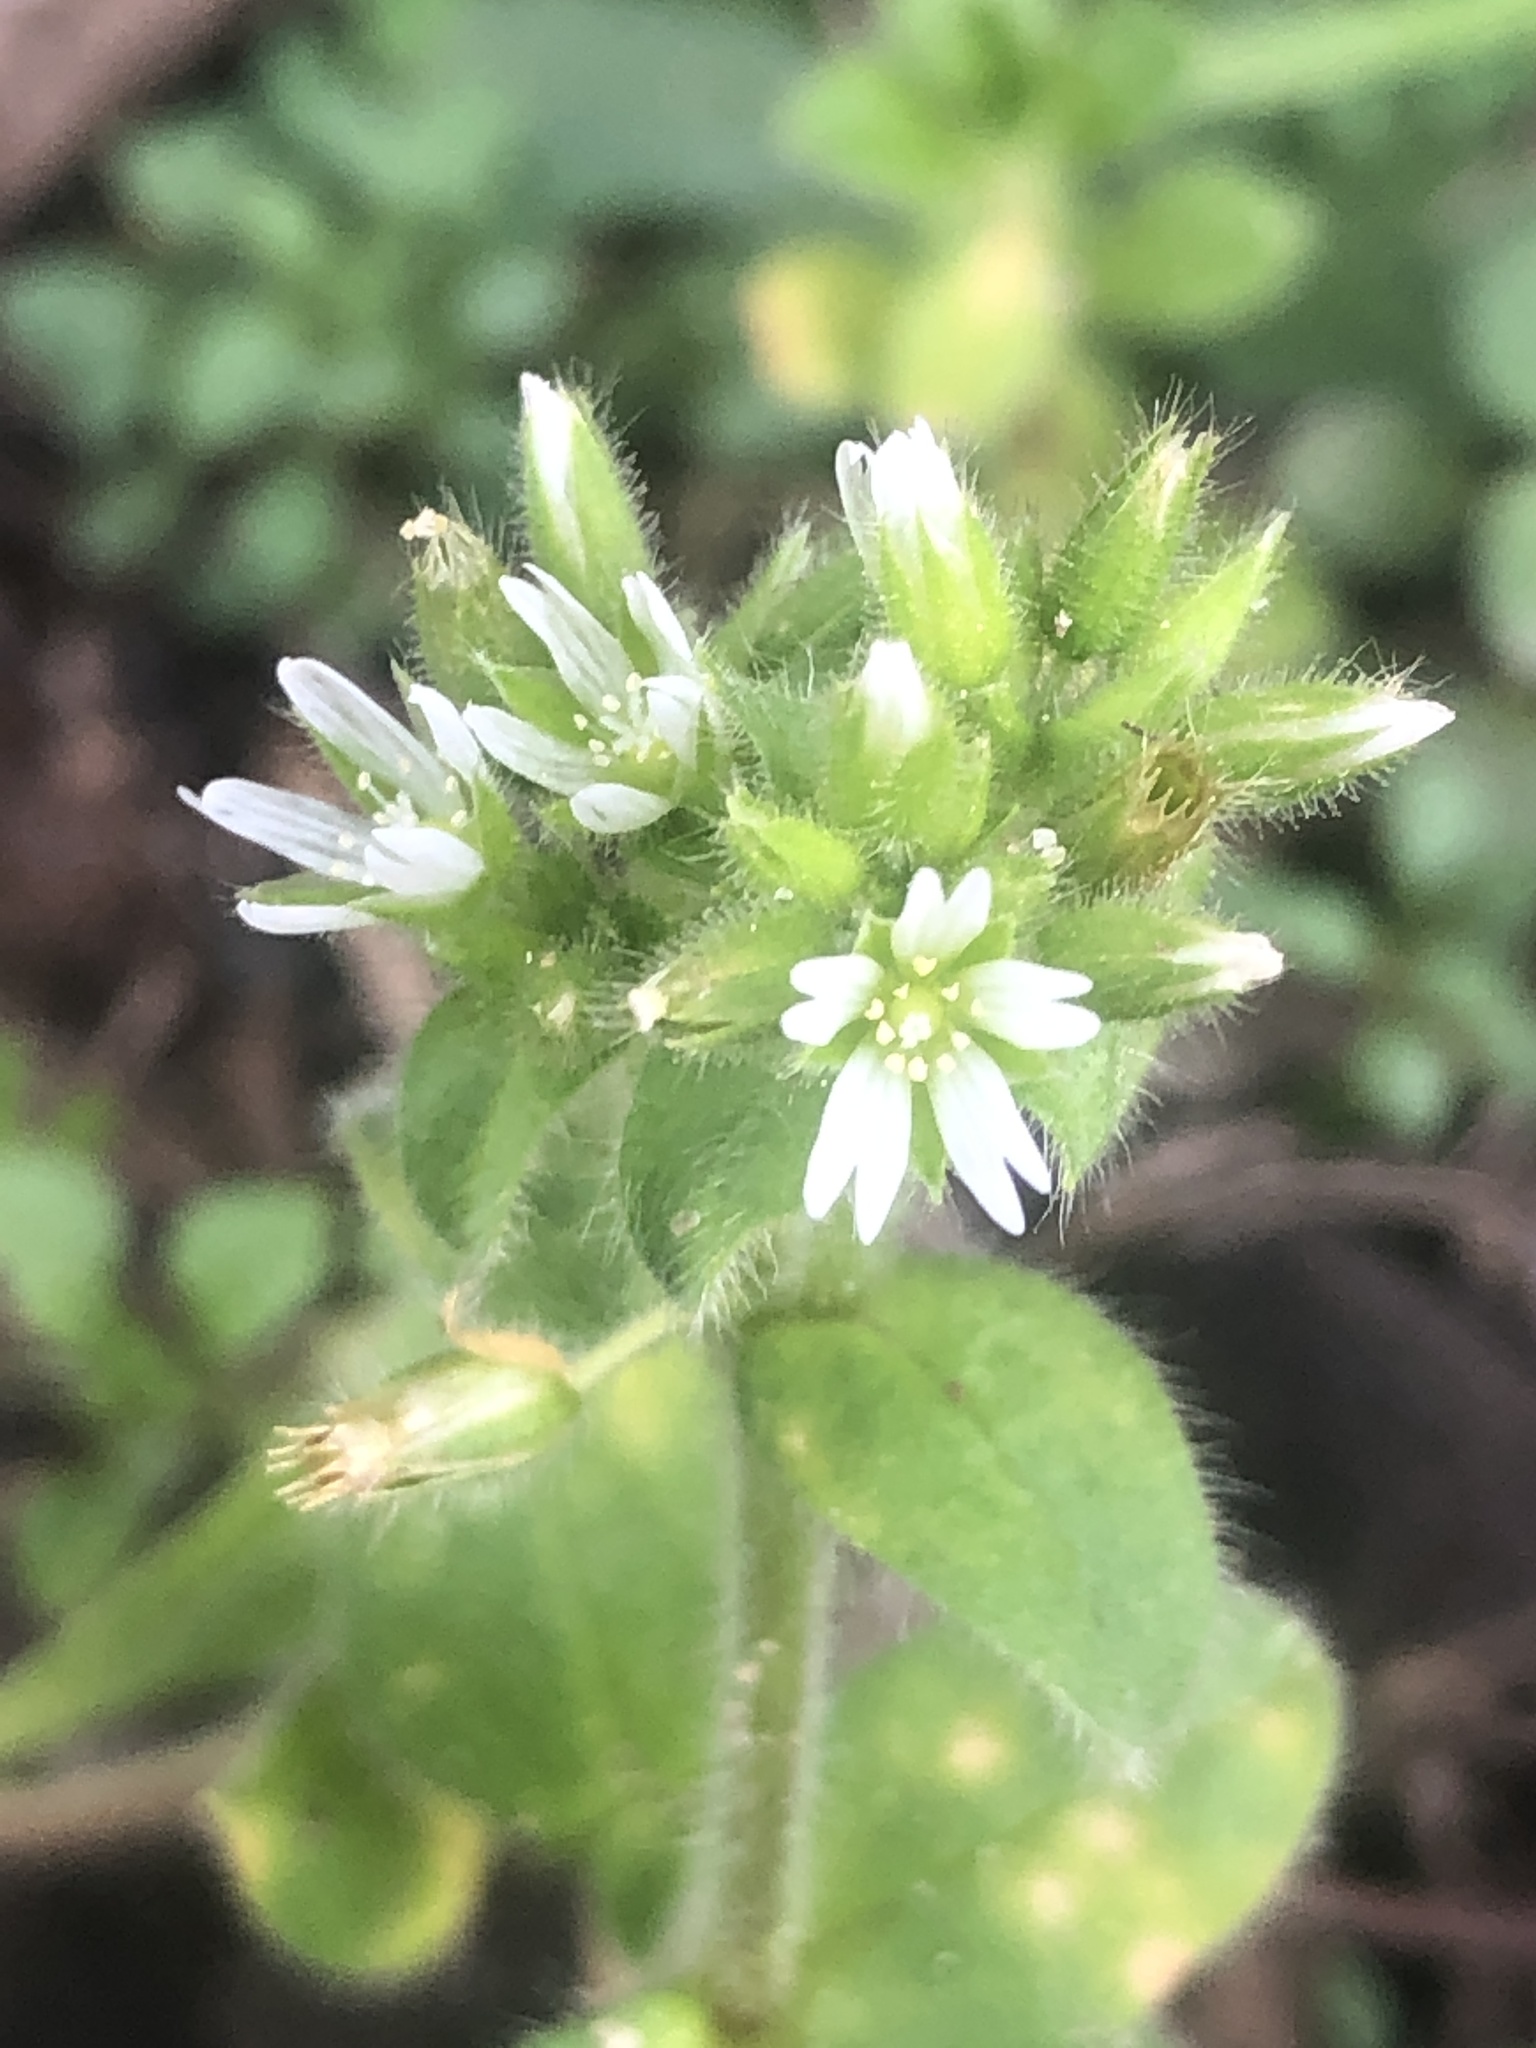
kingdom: Plantae
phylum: Tracheophyta
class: Magnoliopsida
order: Caryophyllales
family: Caryophyllaceae
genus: Cerastium
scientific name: Cerastium glomeratum
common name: Sticky chickweed
